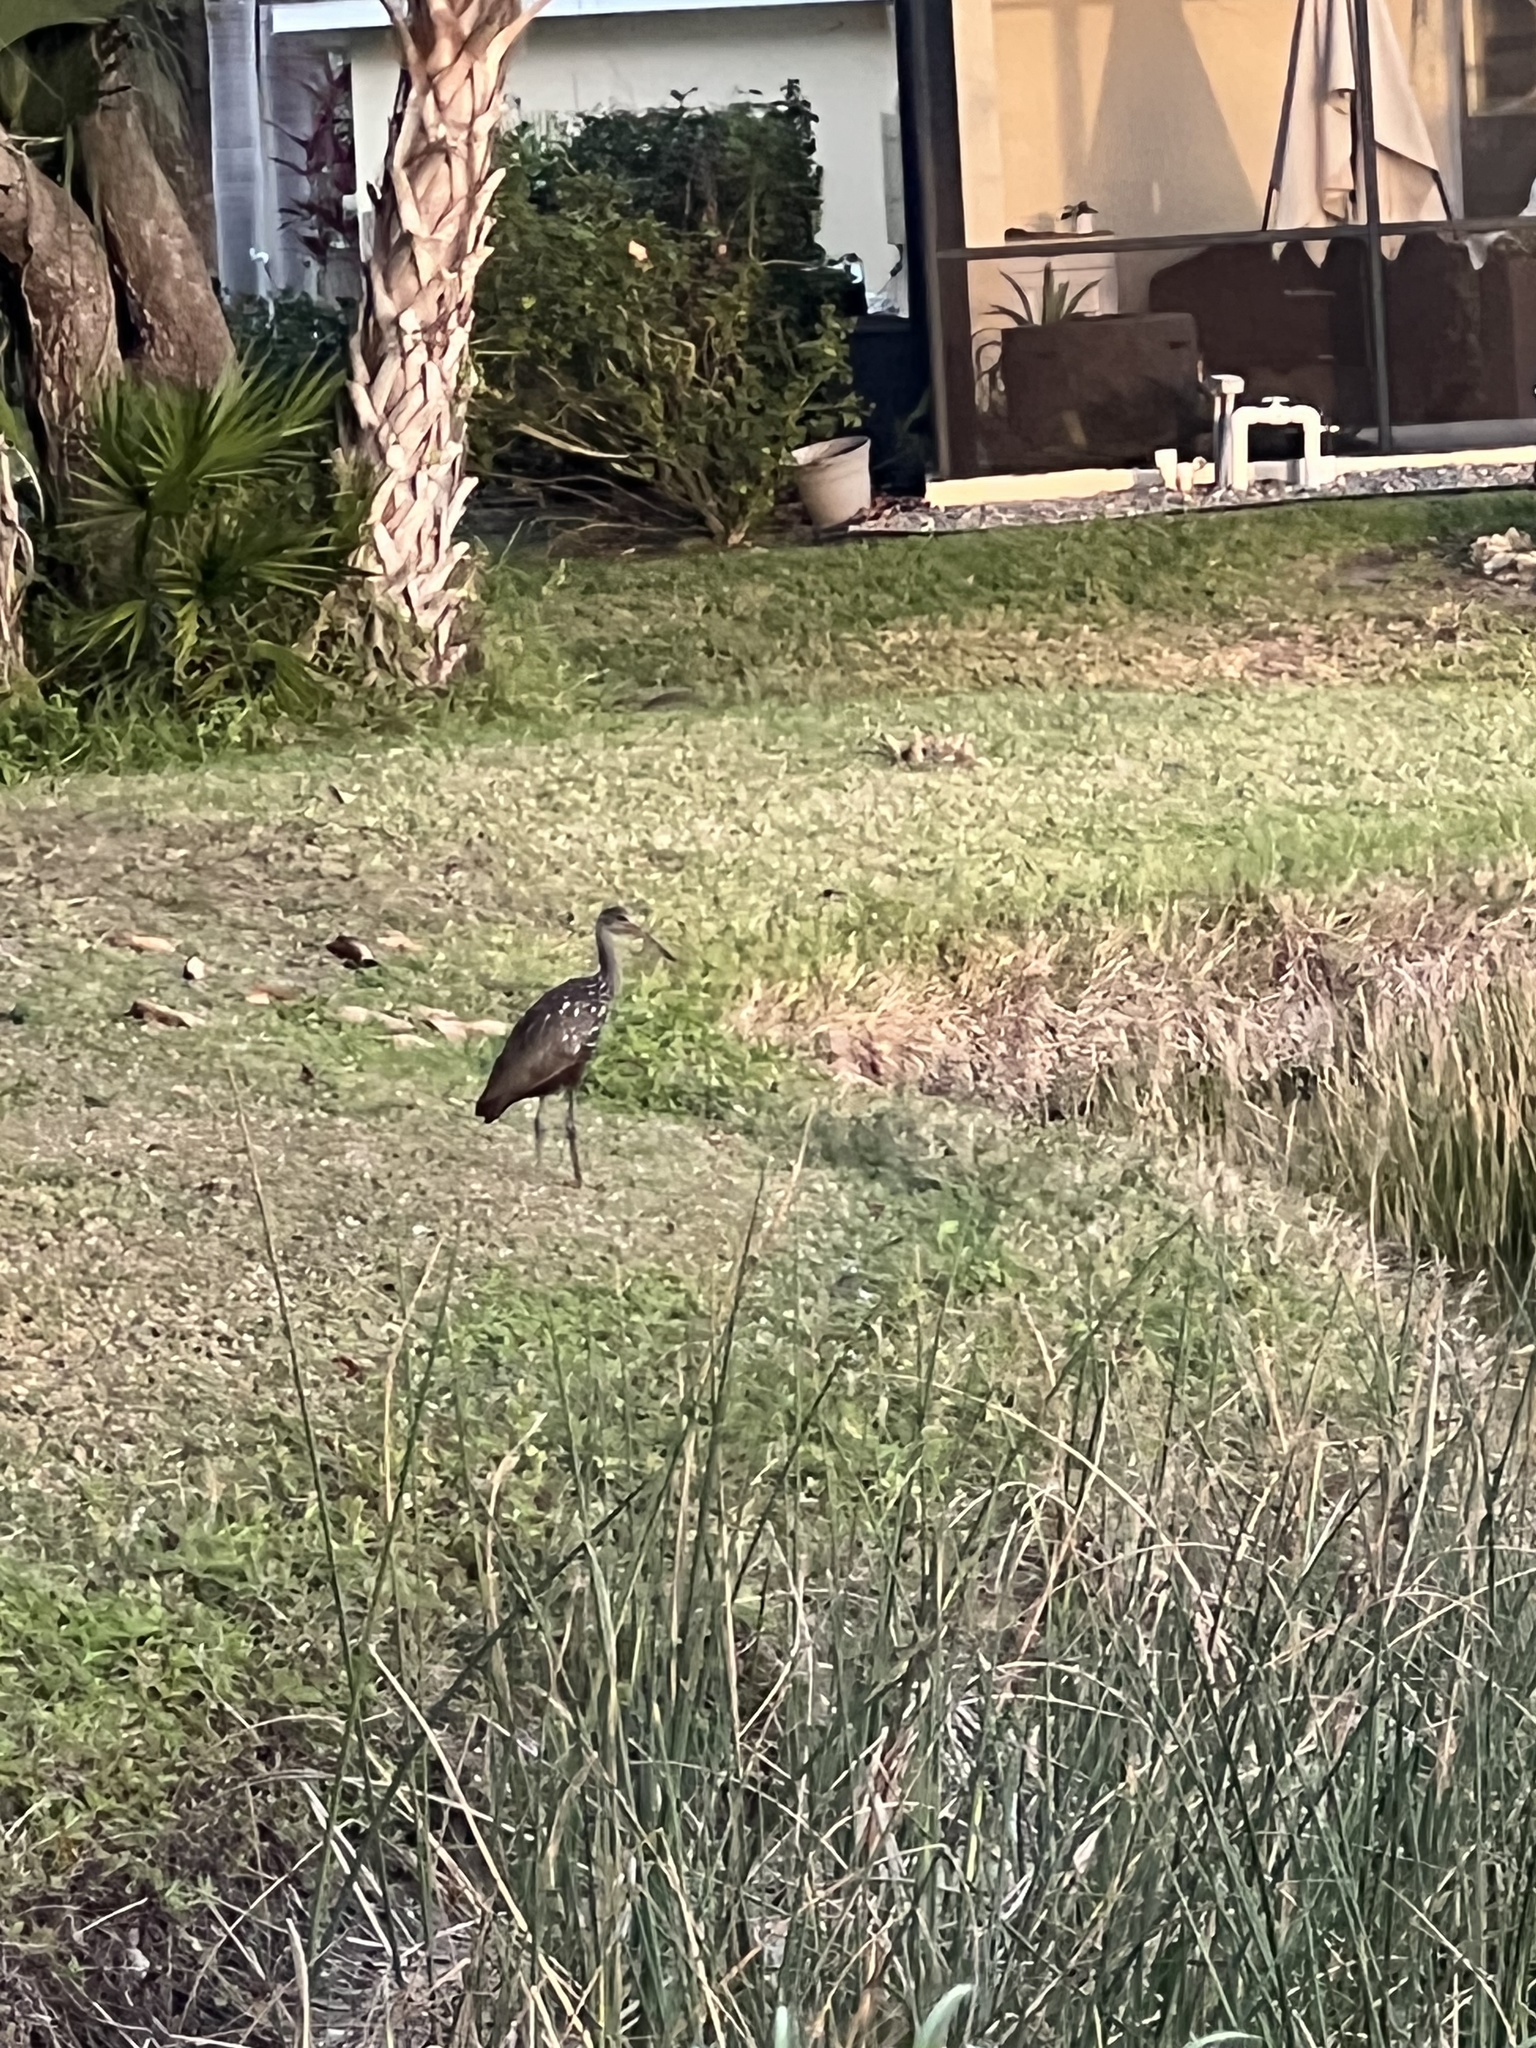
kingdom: Animalia
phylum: Chordata
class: Aves
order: Gruiformes
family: Aramidae
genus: Aramus
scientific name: Aramus guarauna
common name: Limpkin
